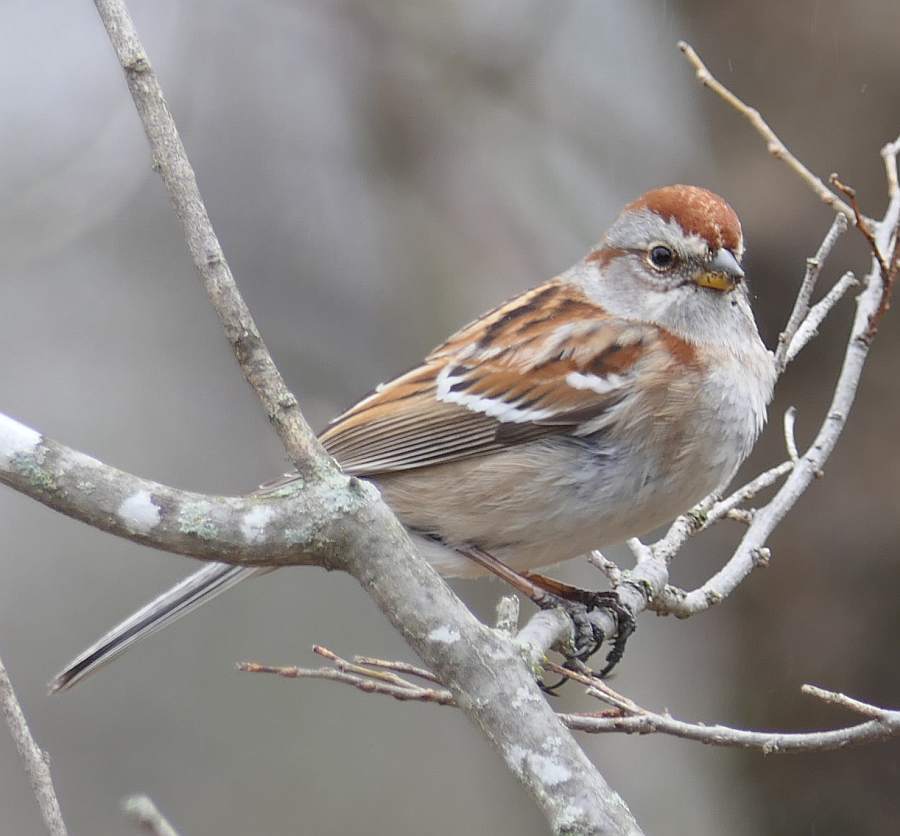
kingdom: Animalia
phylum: Chordata
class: Aves
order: Passeriformes
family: Passerellidae
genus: Spizelloides
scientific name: Spizelloides arborea
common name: American tree sparrow
